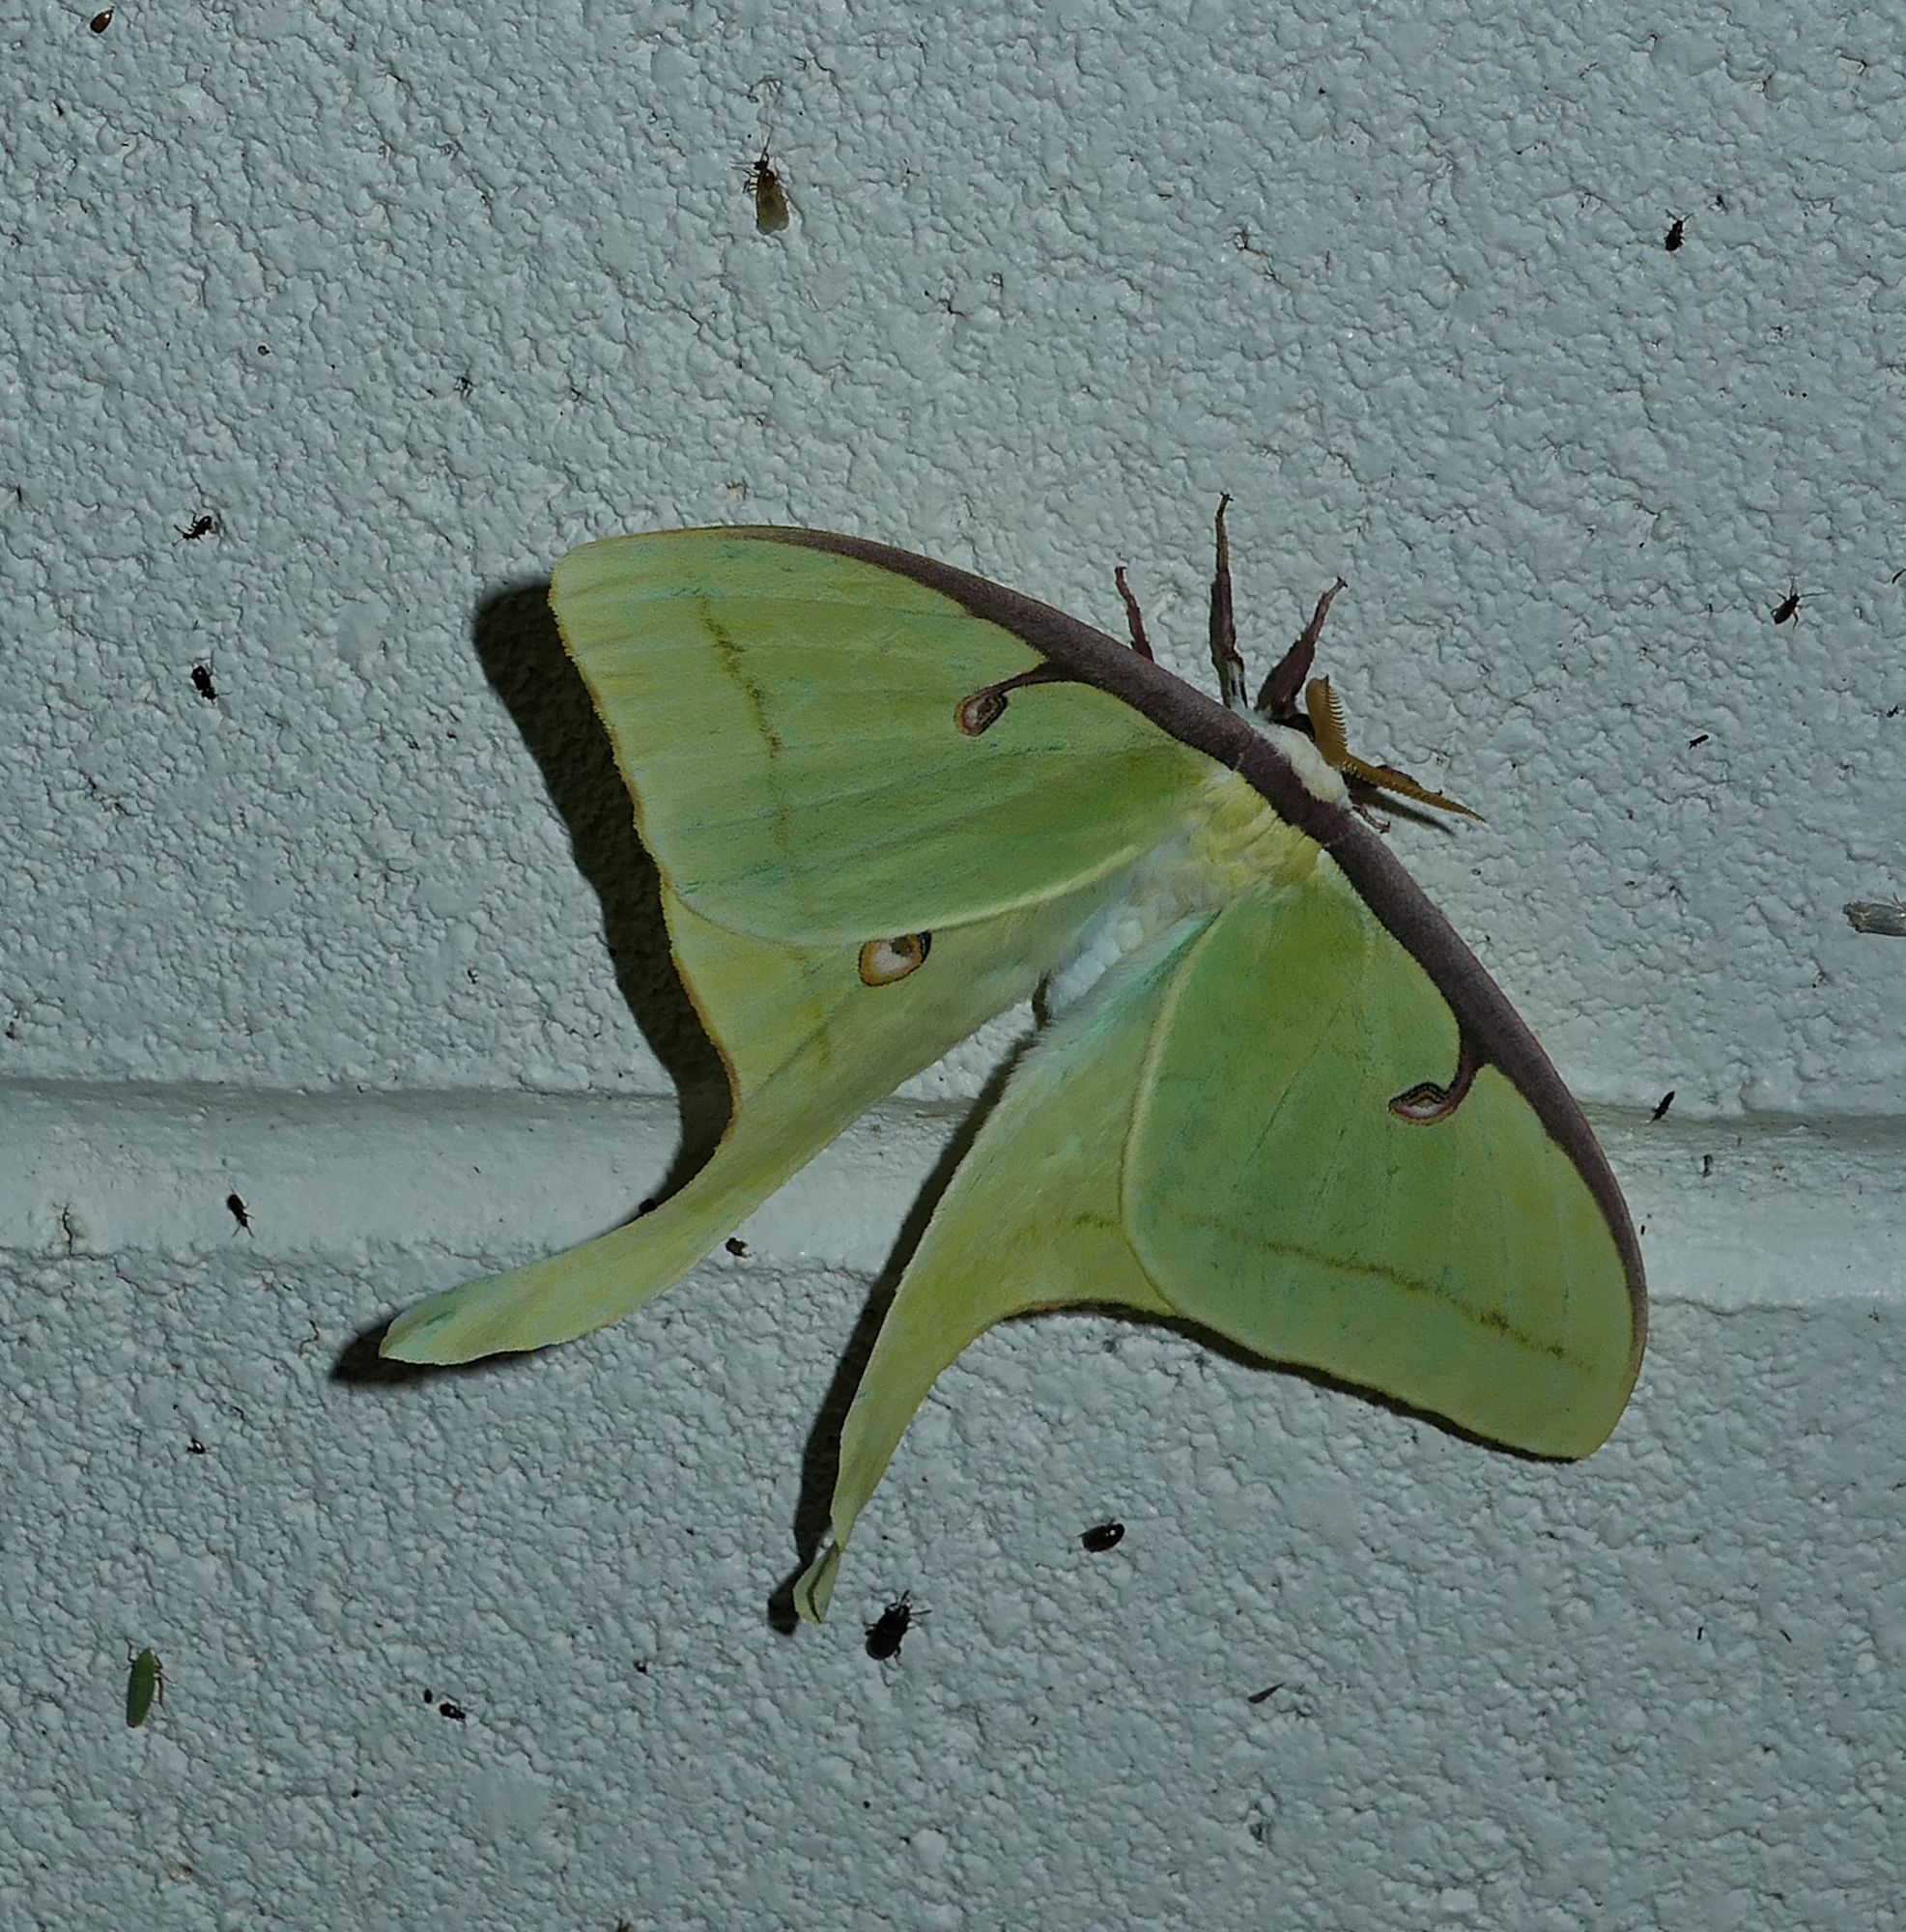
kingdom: Animalia
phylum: Arthropoda
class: Insecta
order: Lepidoptera
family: Saturniidae
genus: Actias
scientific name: Actias luna
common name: Luna moth
